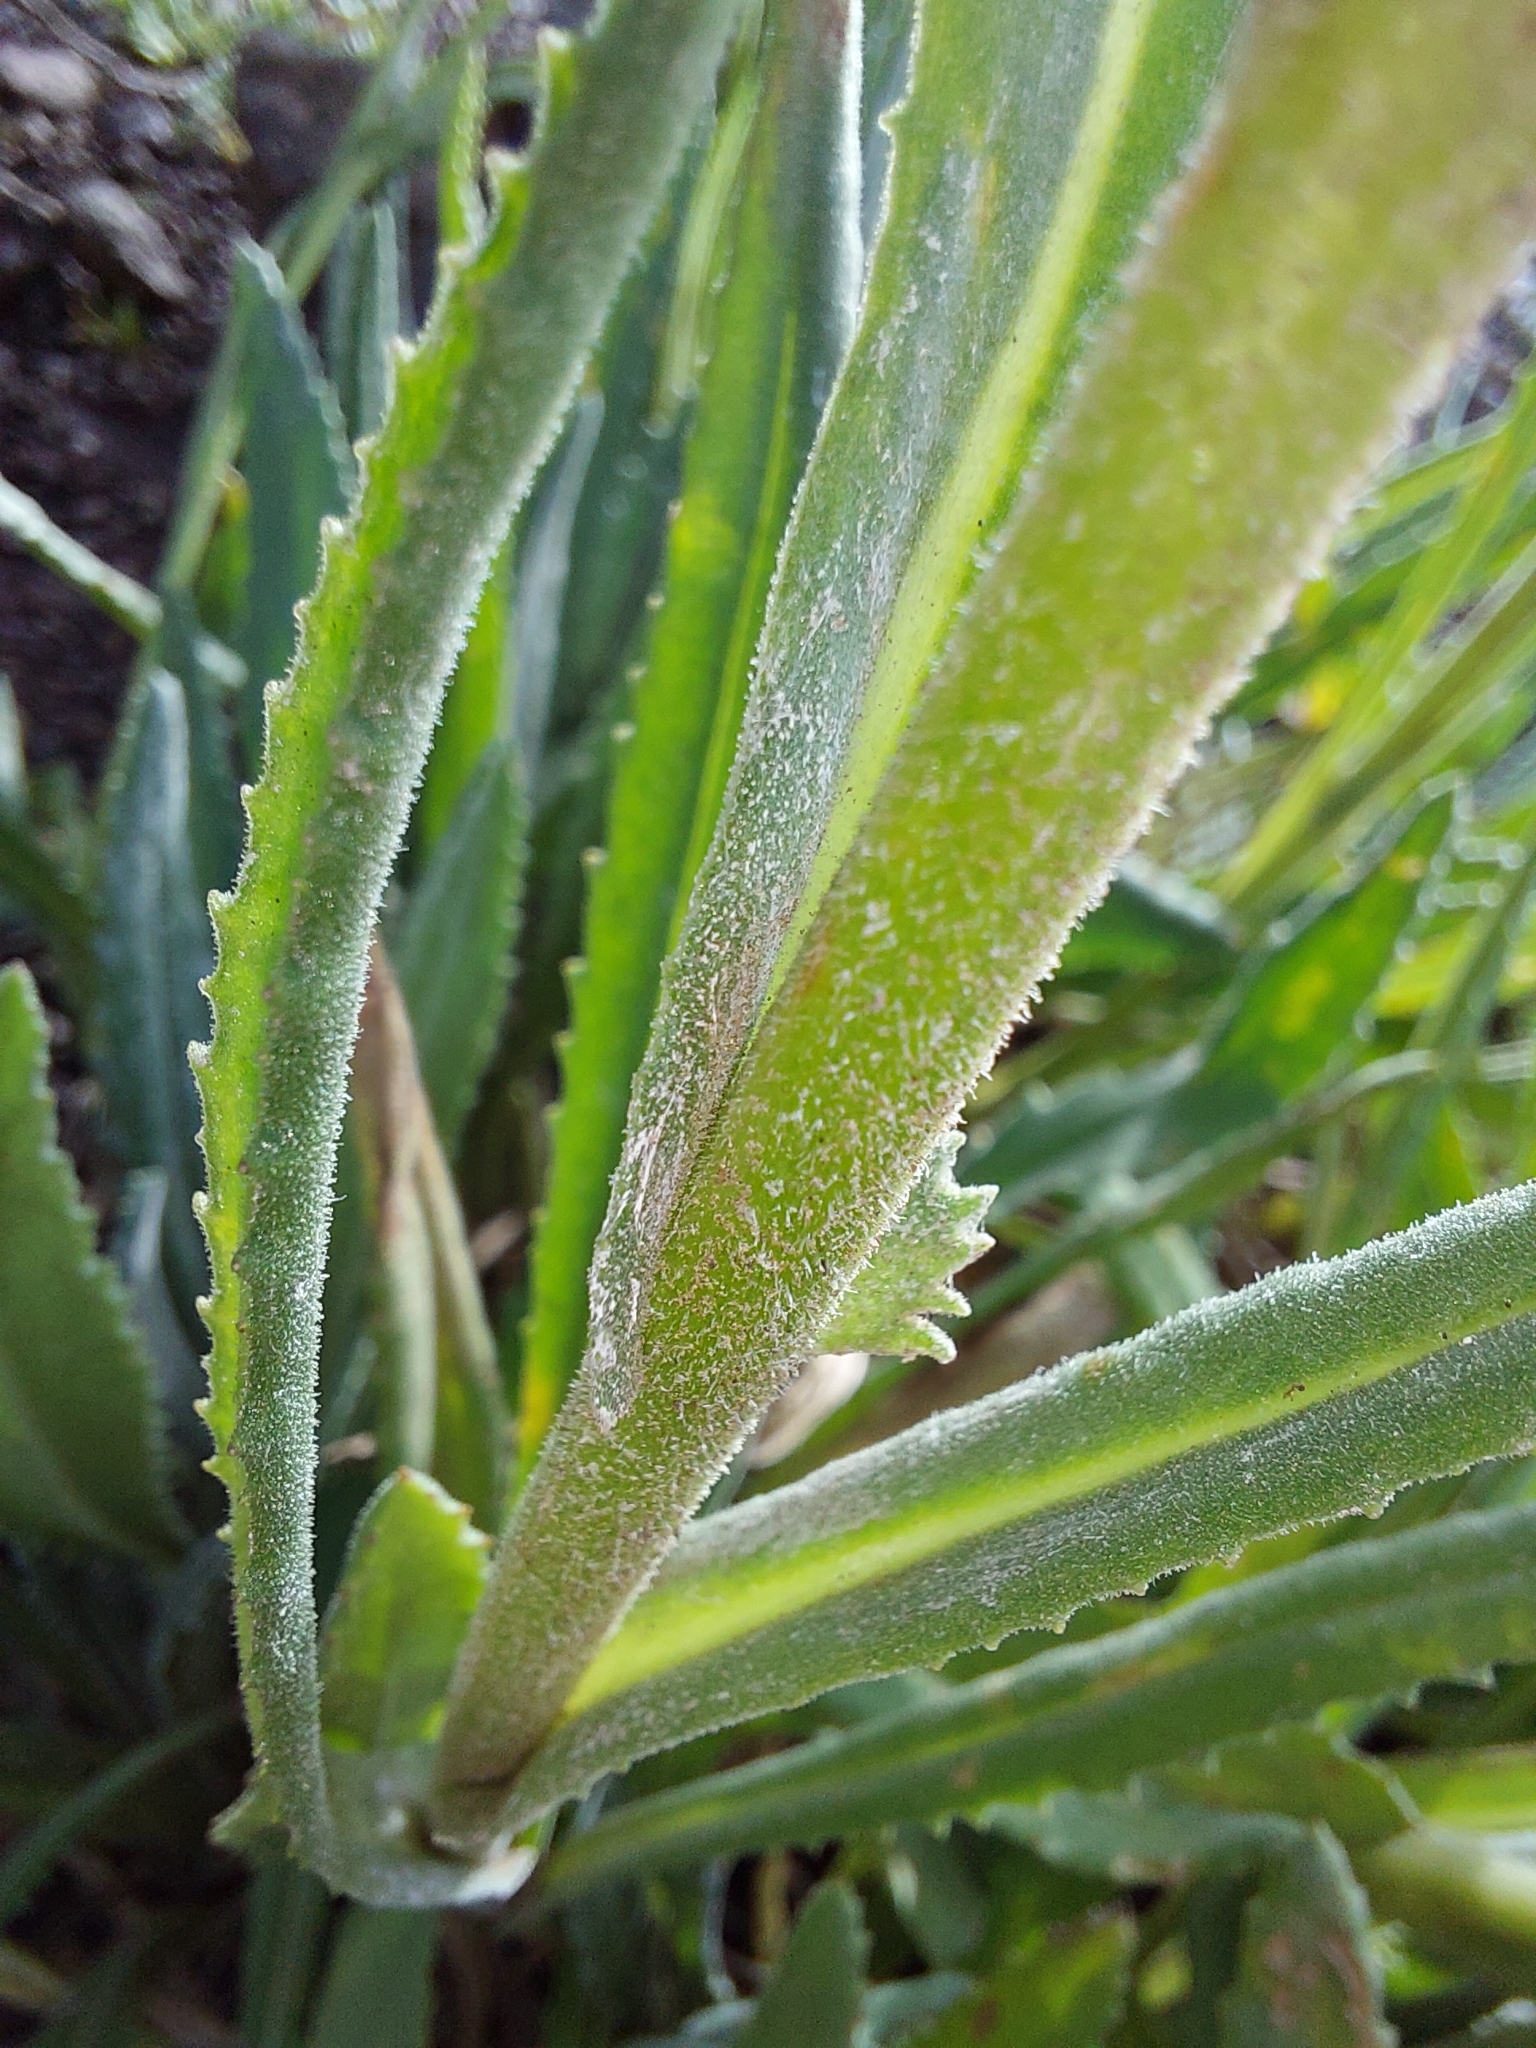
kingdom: Plantae
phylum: Tracheophyta
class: Magnoliopsida
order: Asterales
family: Asteraceae
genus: Senecio
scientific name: Senecio asperulus
